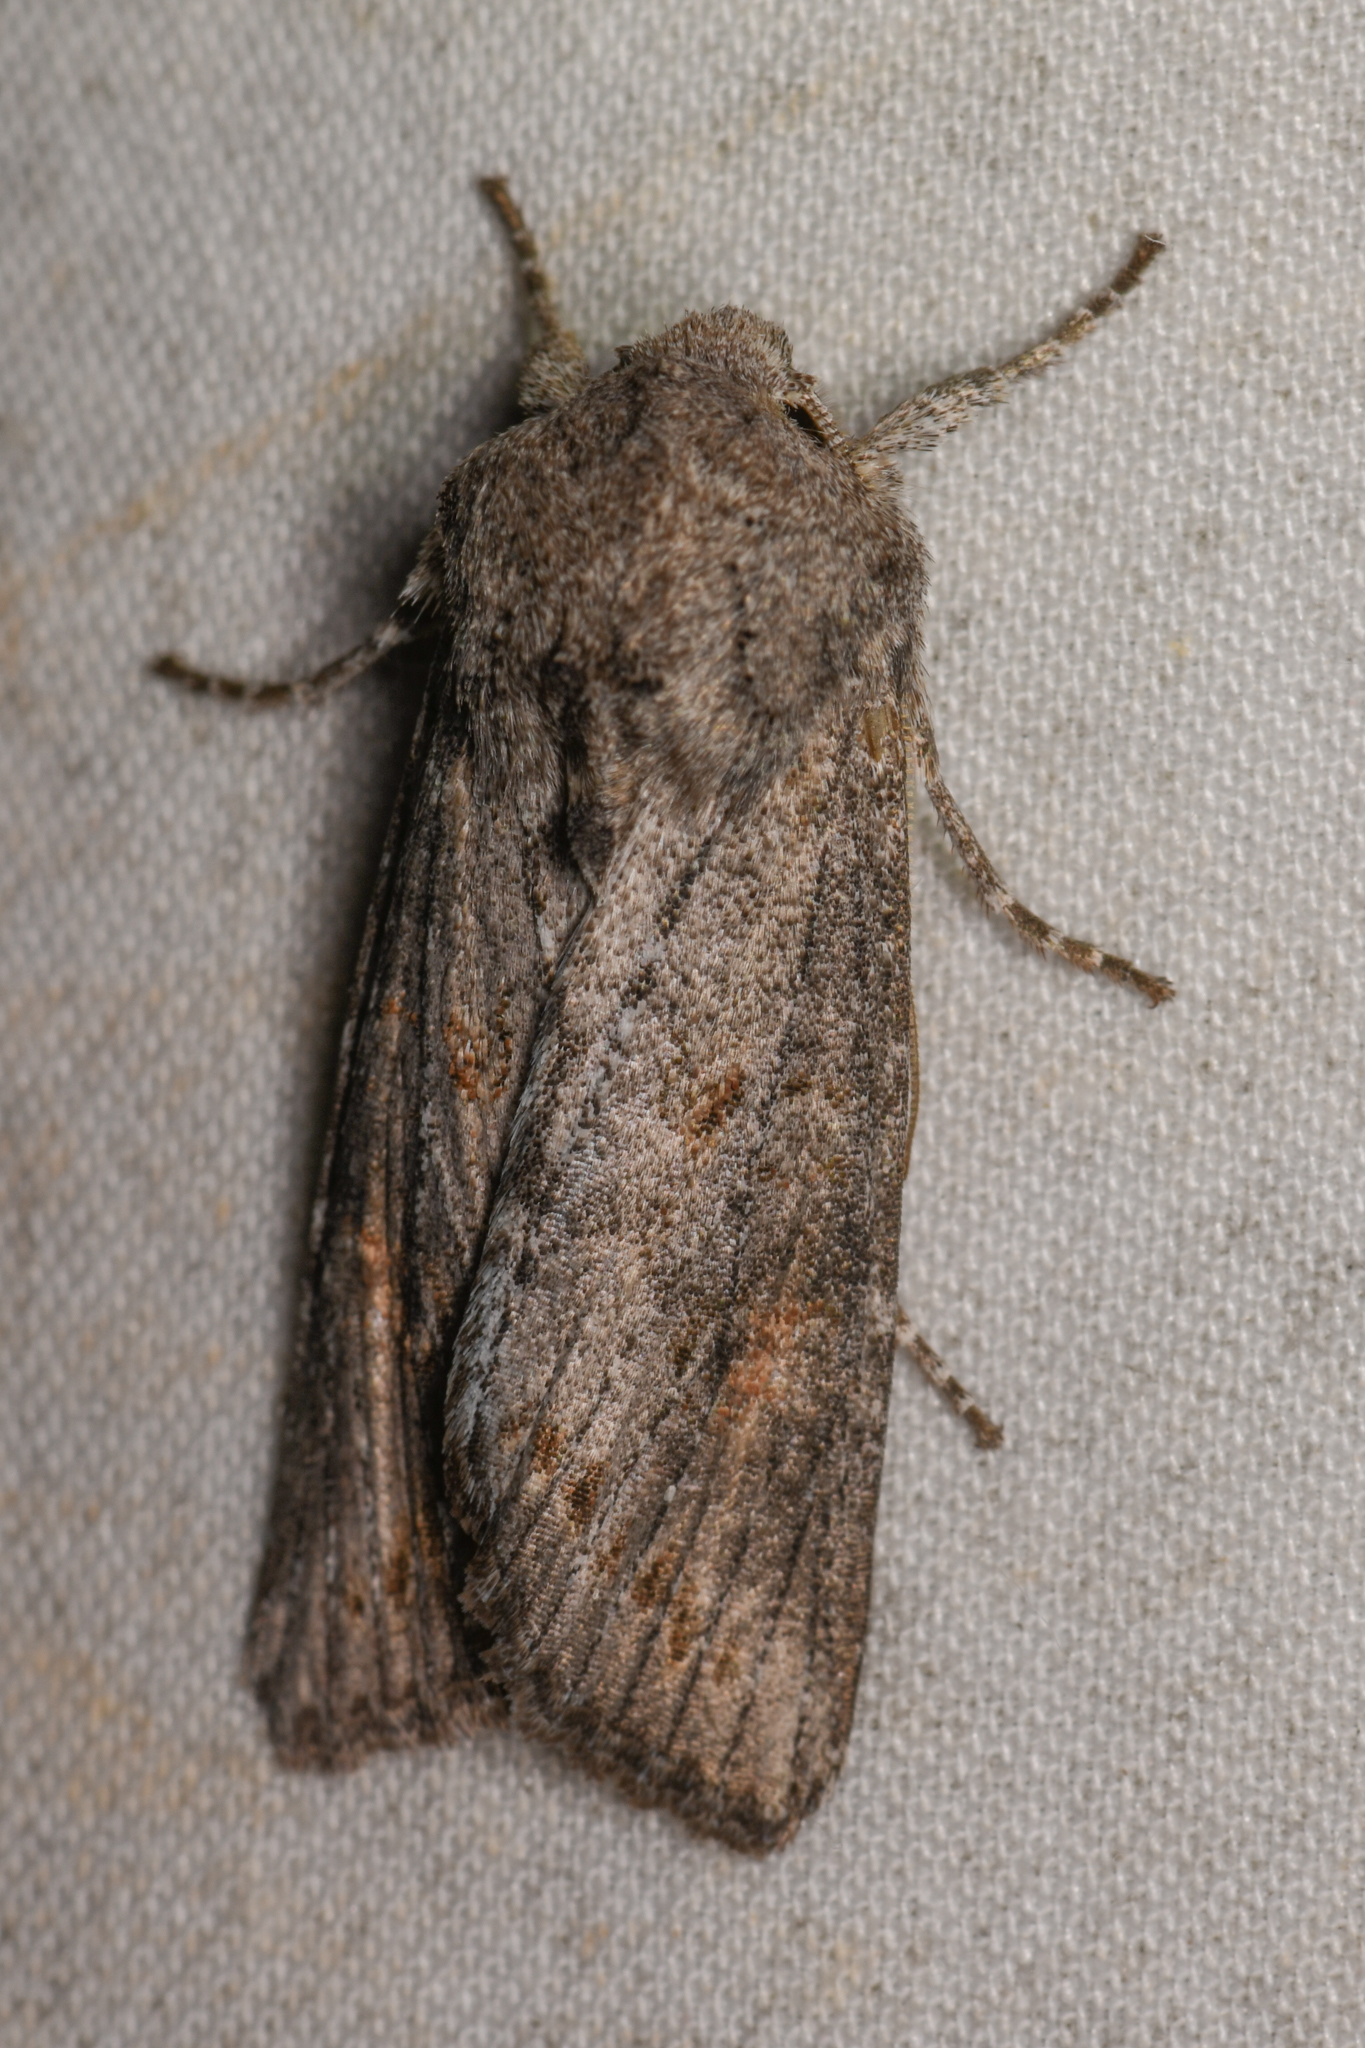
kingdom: Animalia
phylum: Arthropoda
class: Insecta
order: Lepidoptera
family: Noctuidae
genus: Egira
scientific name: Egira curialis
